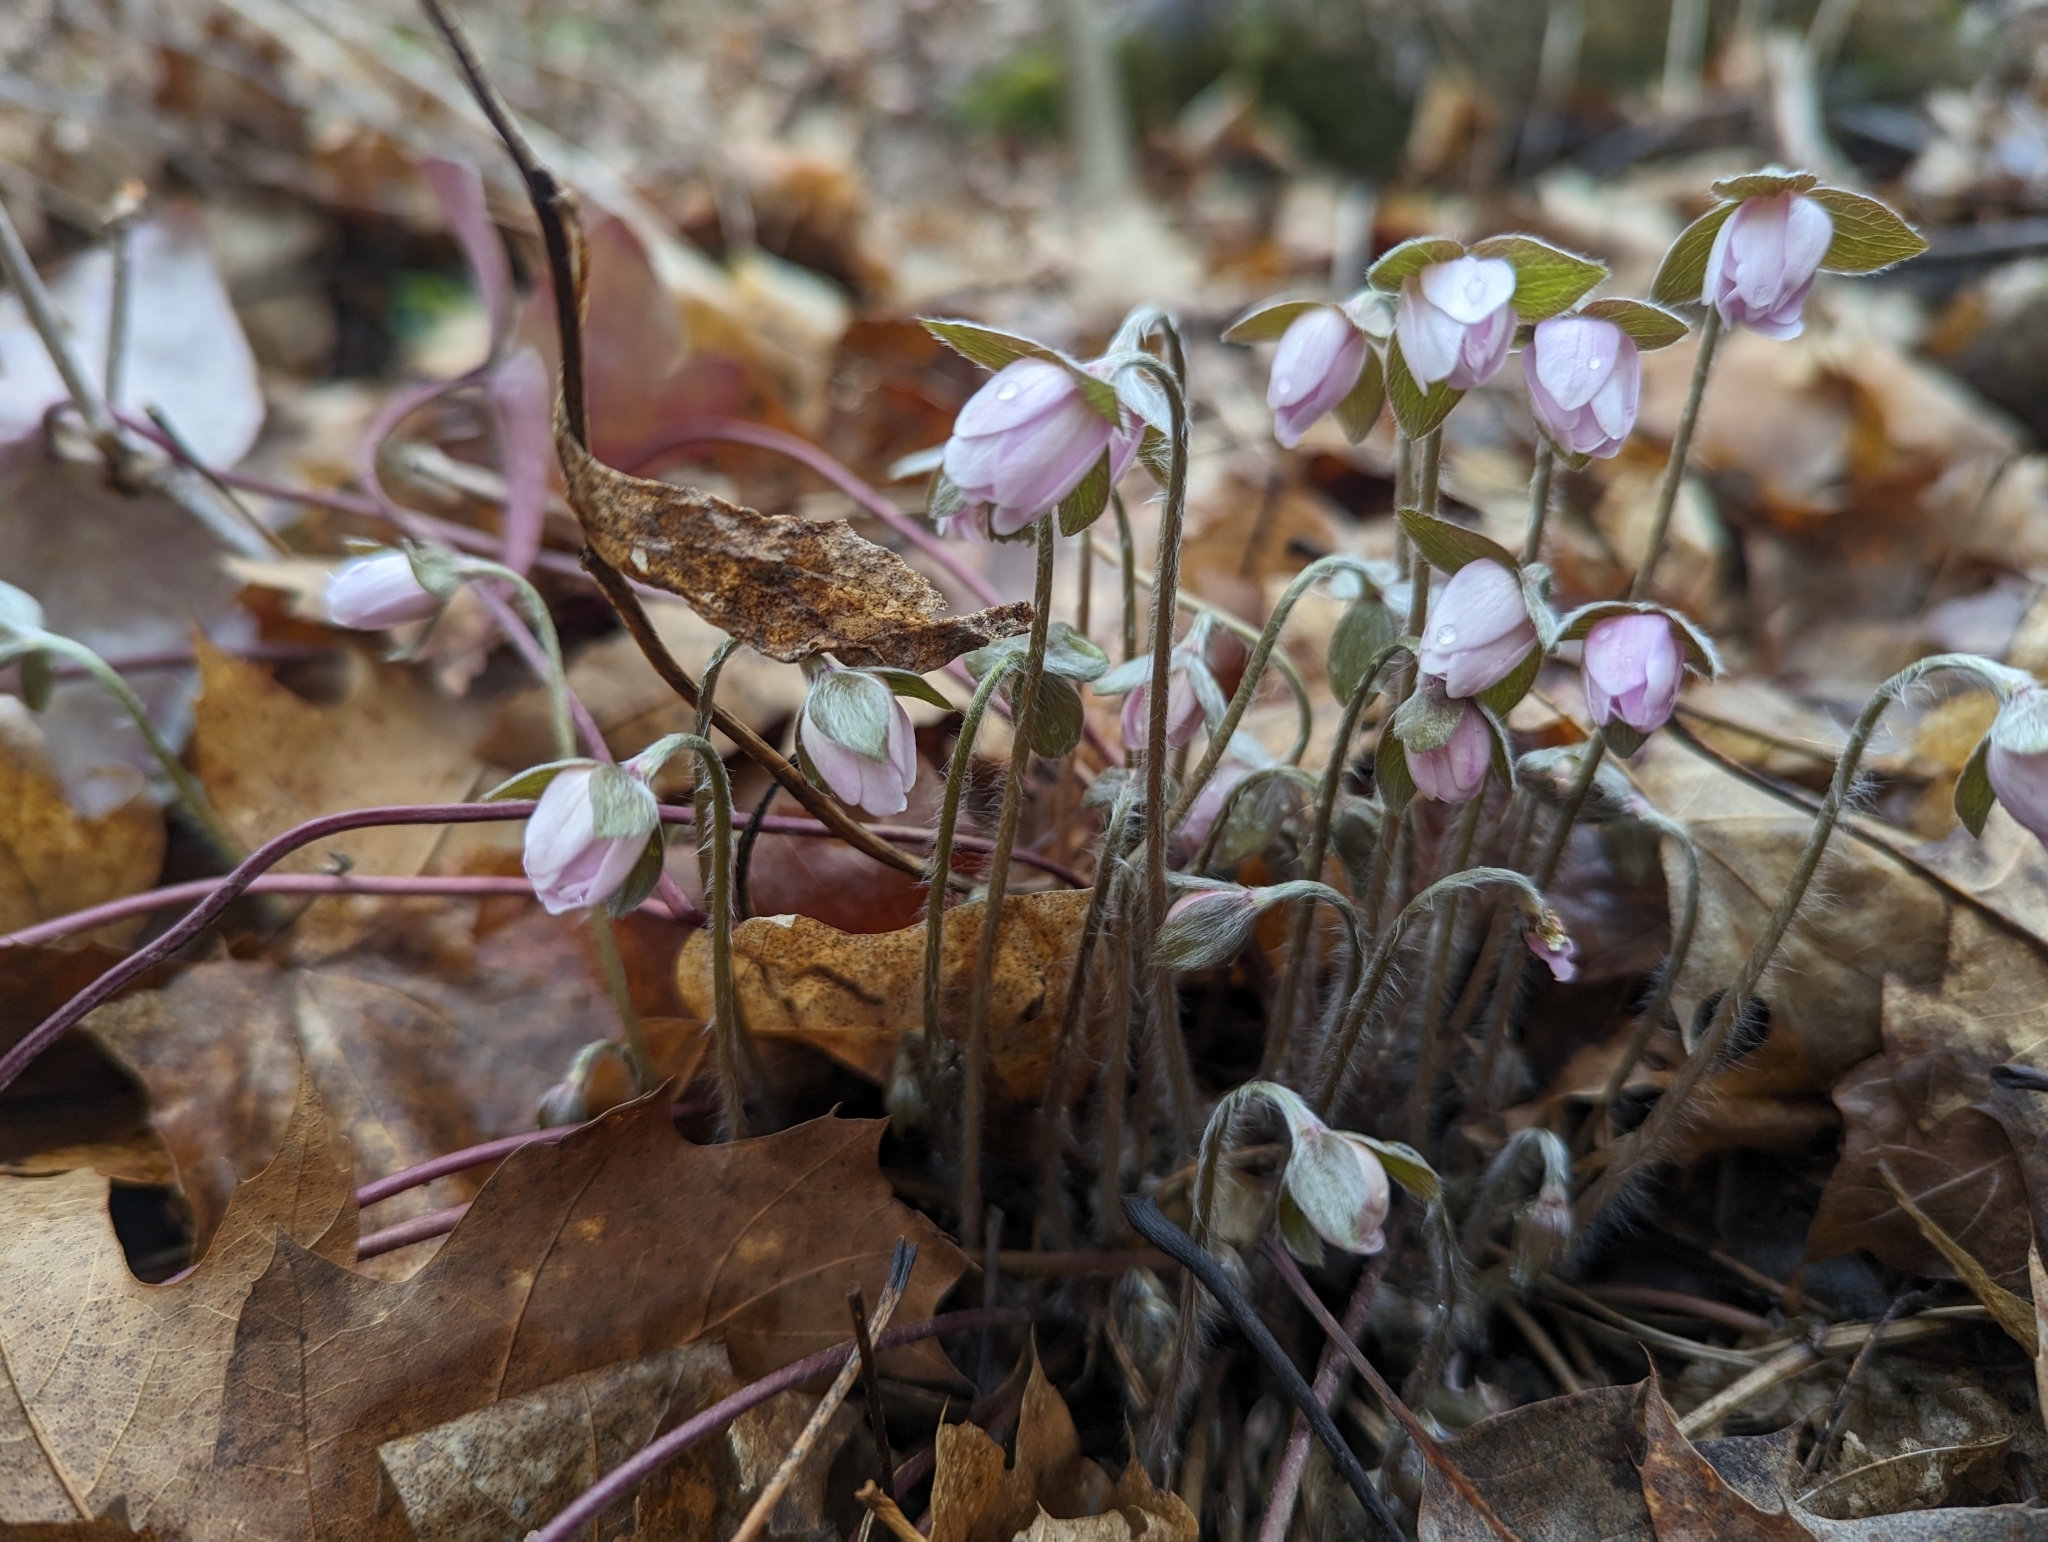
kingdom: Plantae
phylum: Tracheophyta
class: Magnoliopsida
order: Ranunculales
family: Ranunculaceae
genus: Hepatica
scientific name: Hepatica acutiloba
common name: Sharp-lobed hepatica
